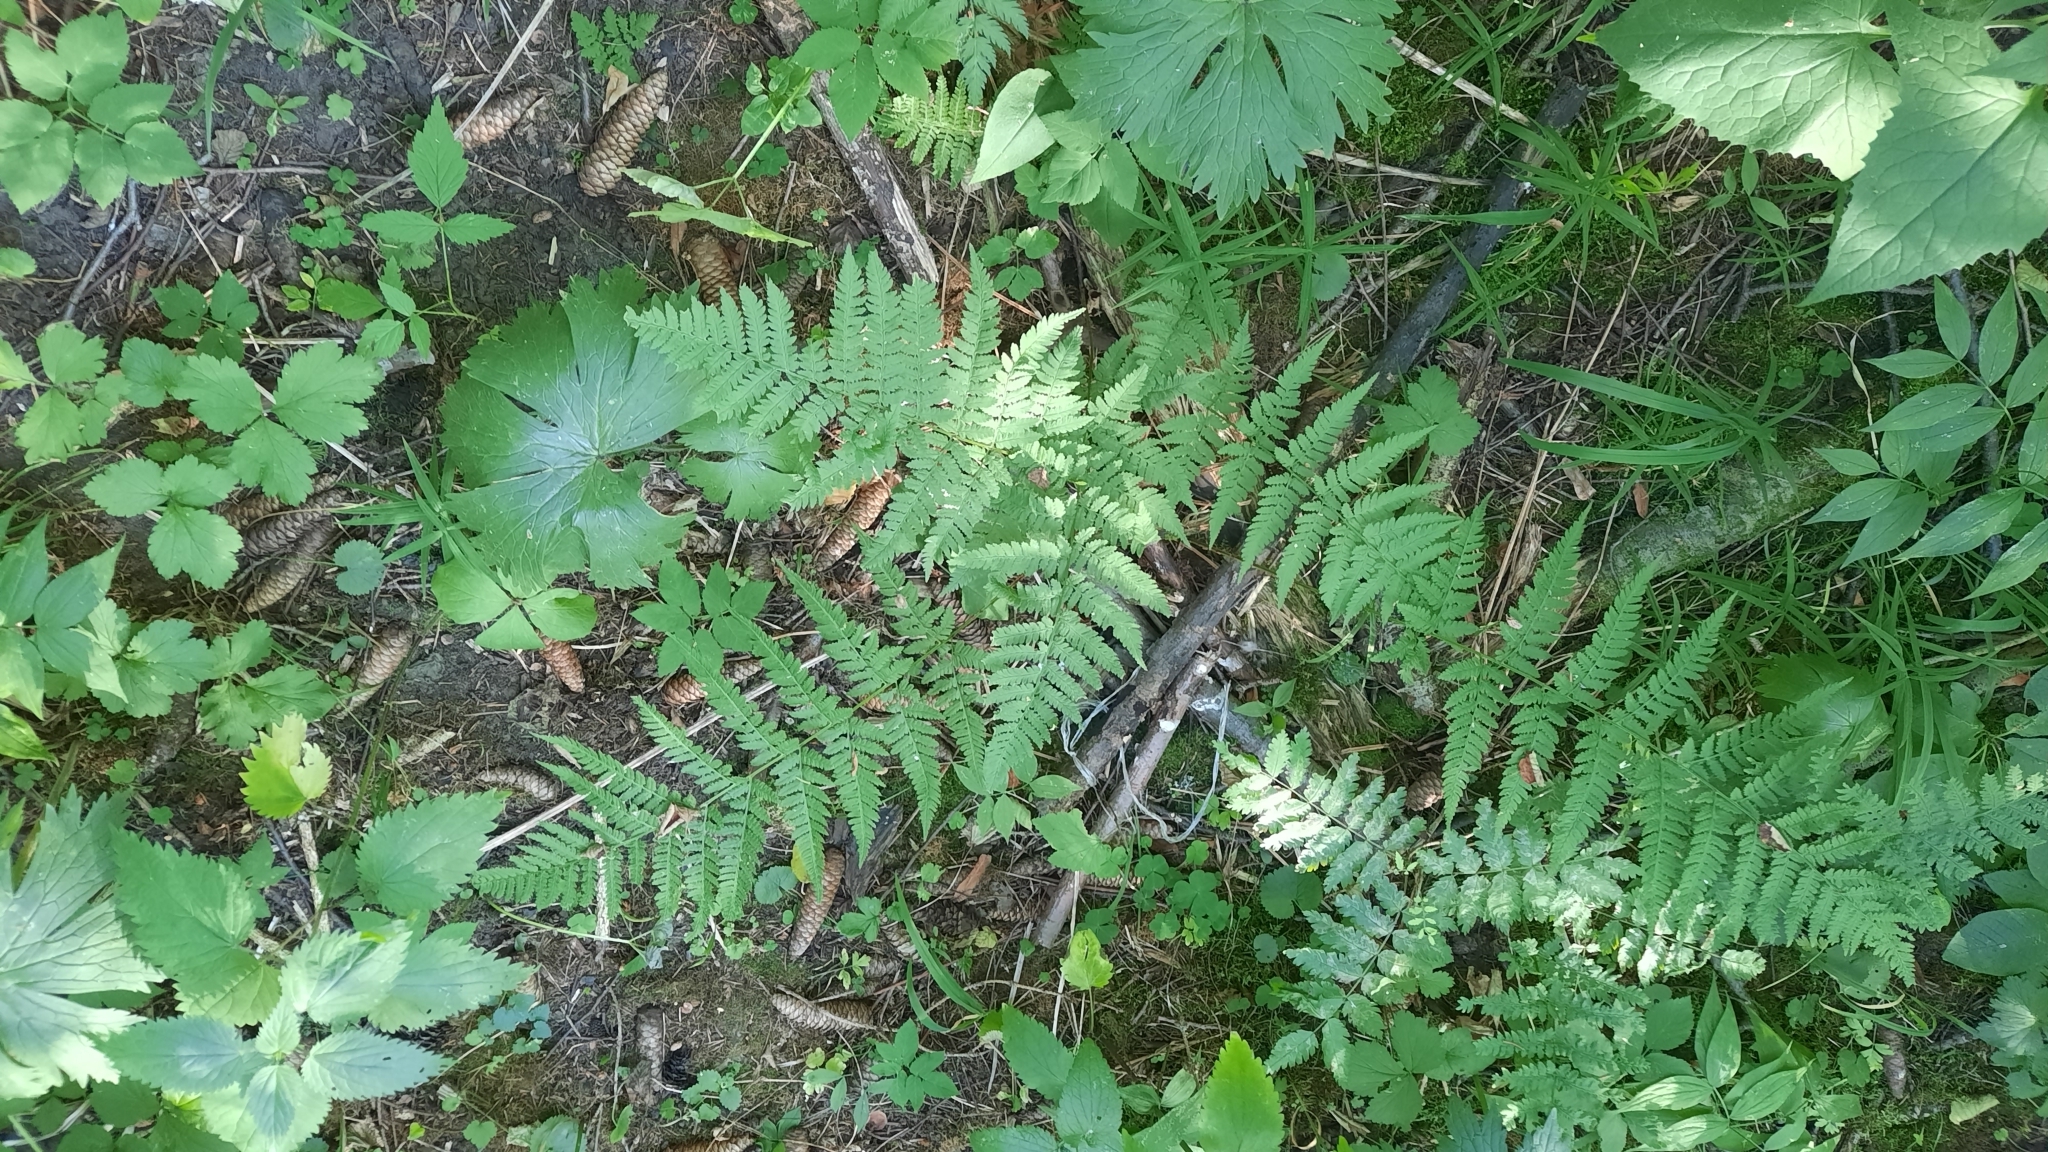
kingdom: Plantae
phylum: Tracheophyta
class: Polypodiopsida
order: Polypodiales
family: Dryopteridaceae
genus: Dryopteris
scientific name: Dryopteris carthusiana
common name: Narrow buckler-fern
